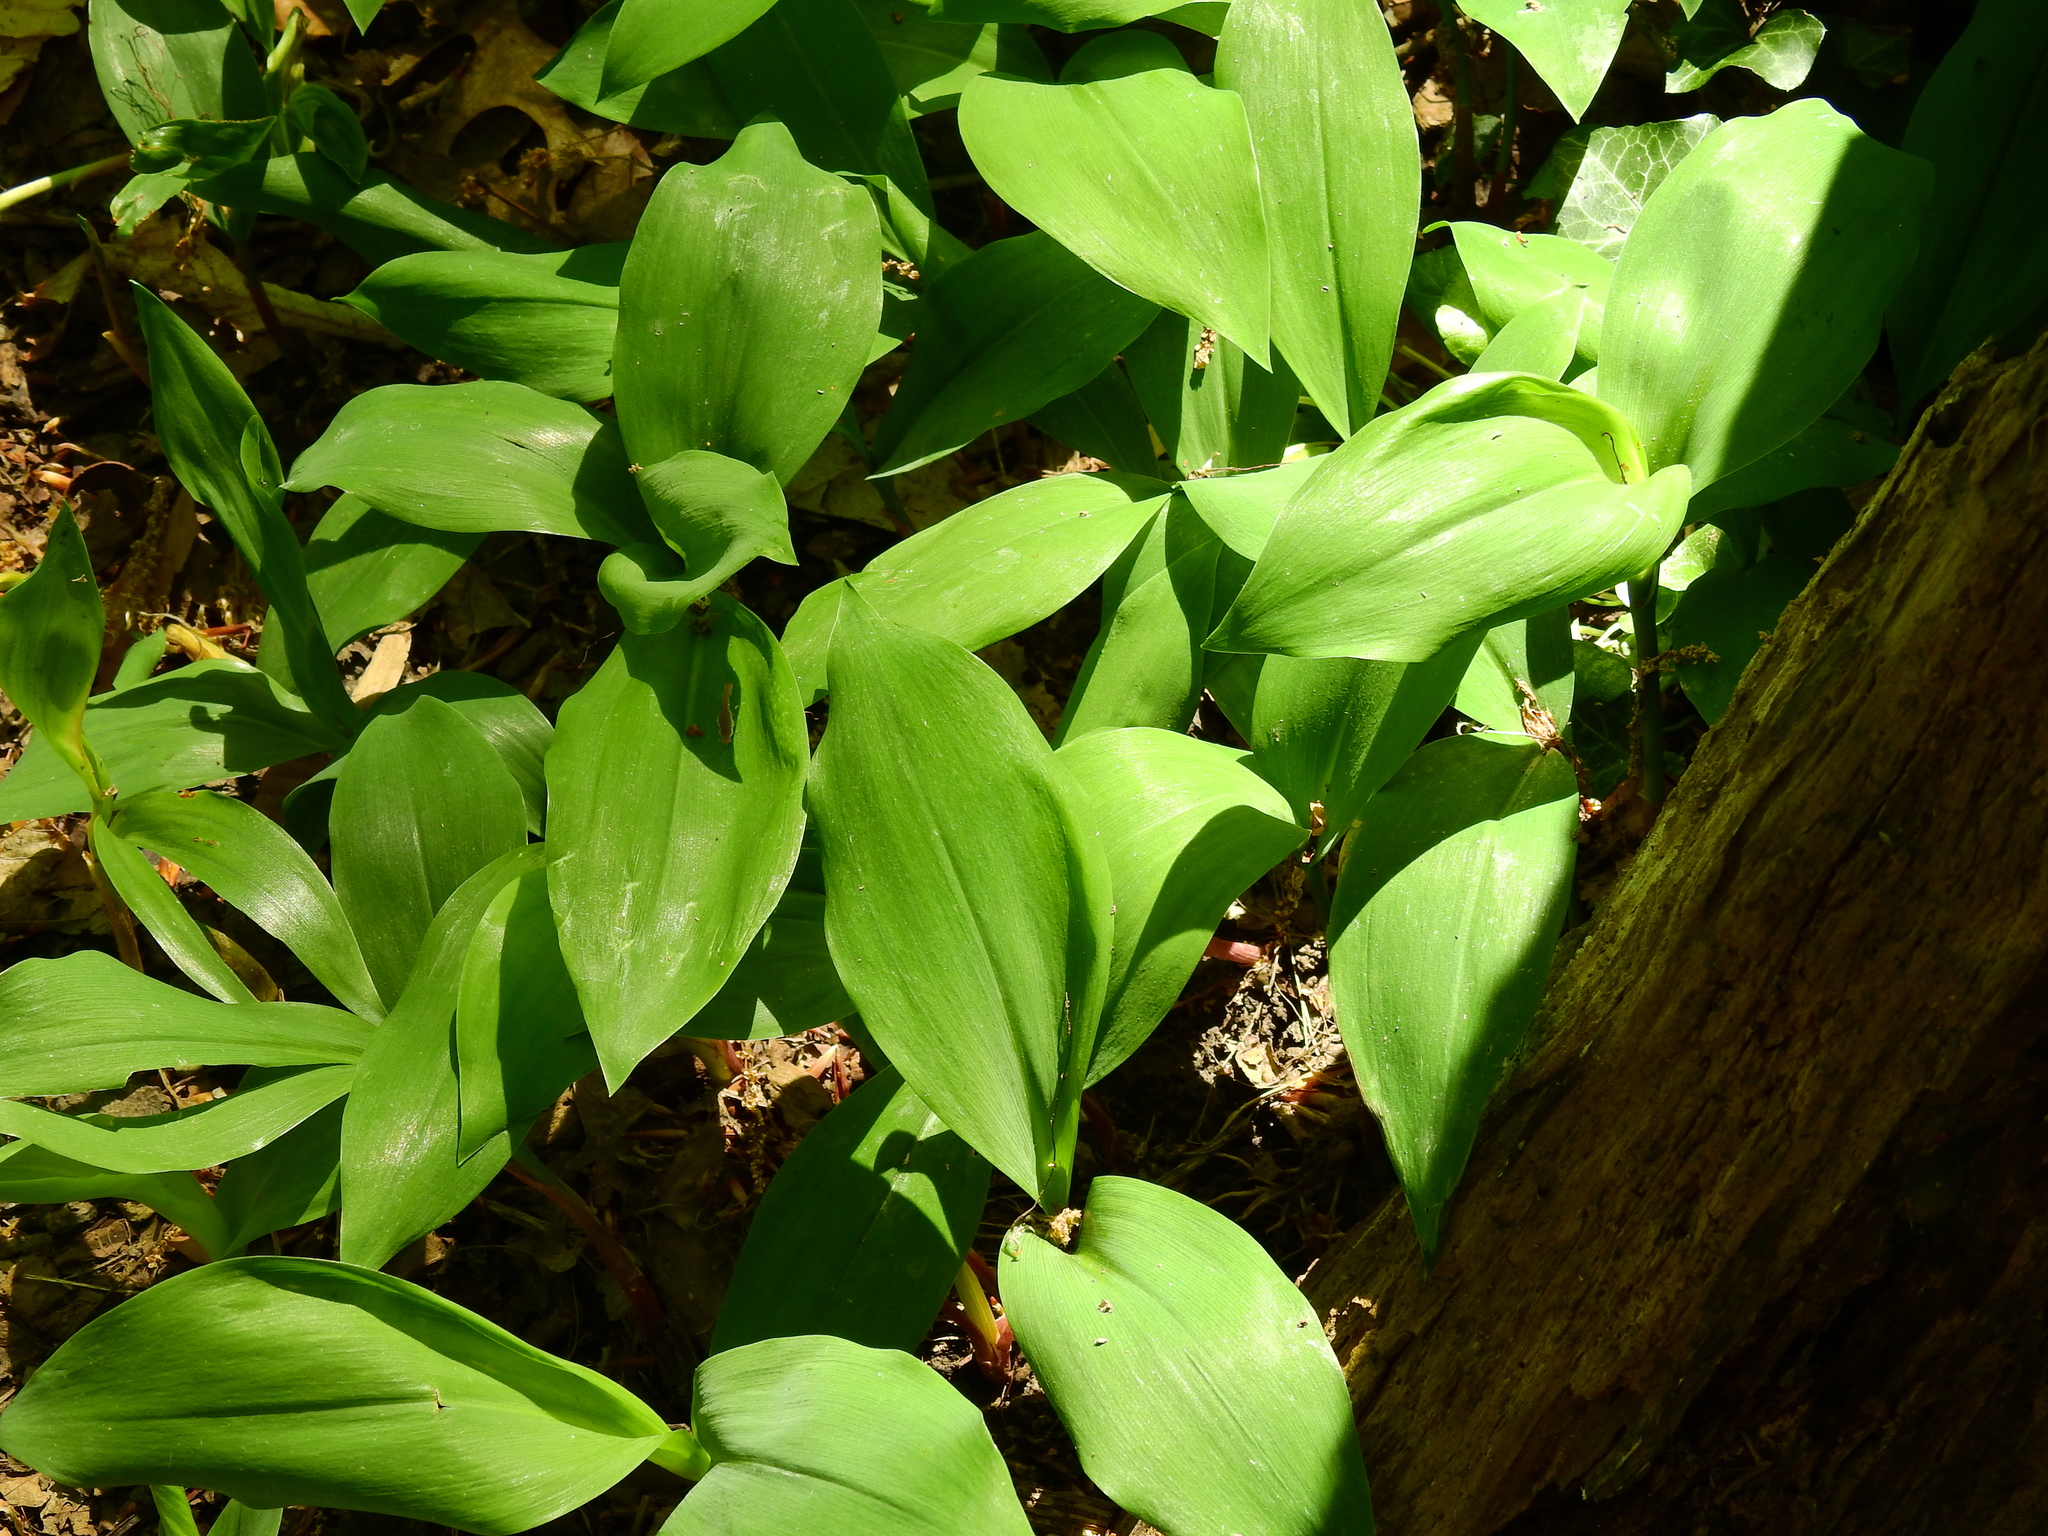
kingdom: Plantae
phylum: Tracheophyta
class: Liliopsida
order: Asparagales
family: Asparagaceae
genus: Convallaria
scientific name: Convallaria majalis
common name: Lily-of-the-valley
